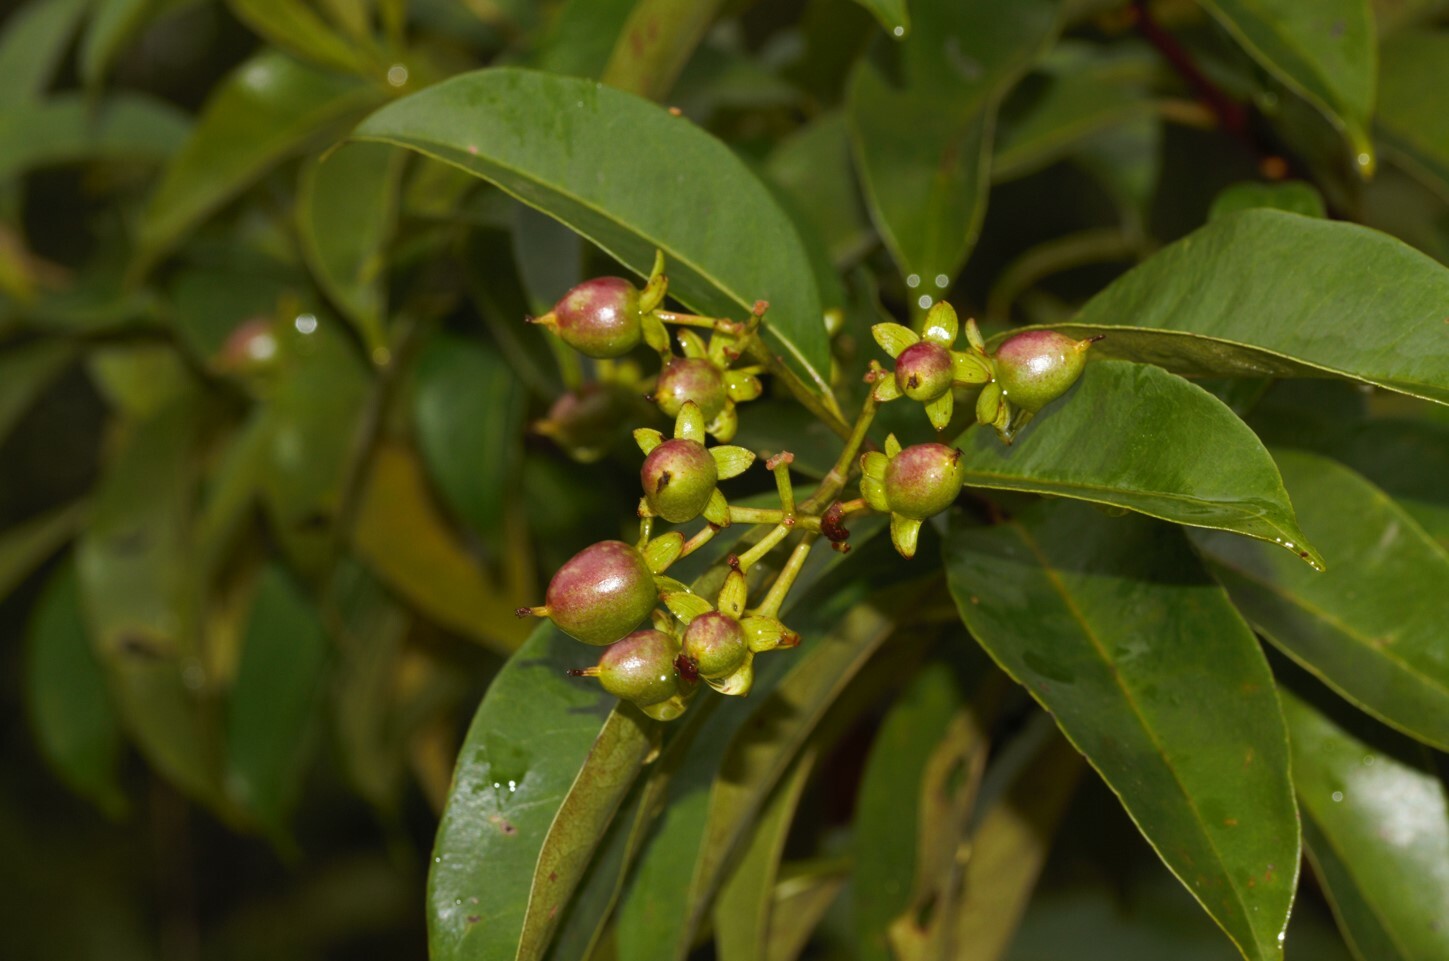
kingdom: Plantae
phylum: Tracheophyta
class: Magnoliopsida
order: Malpighiales
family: Hypericaceae
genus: Vismia
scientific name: Vismia cayennensis
